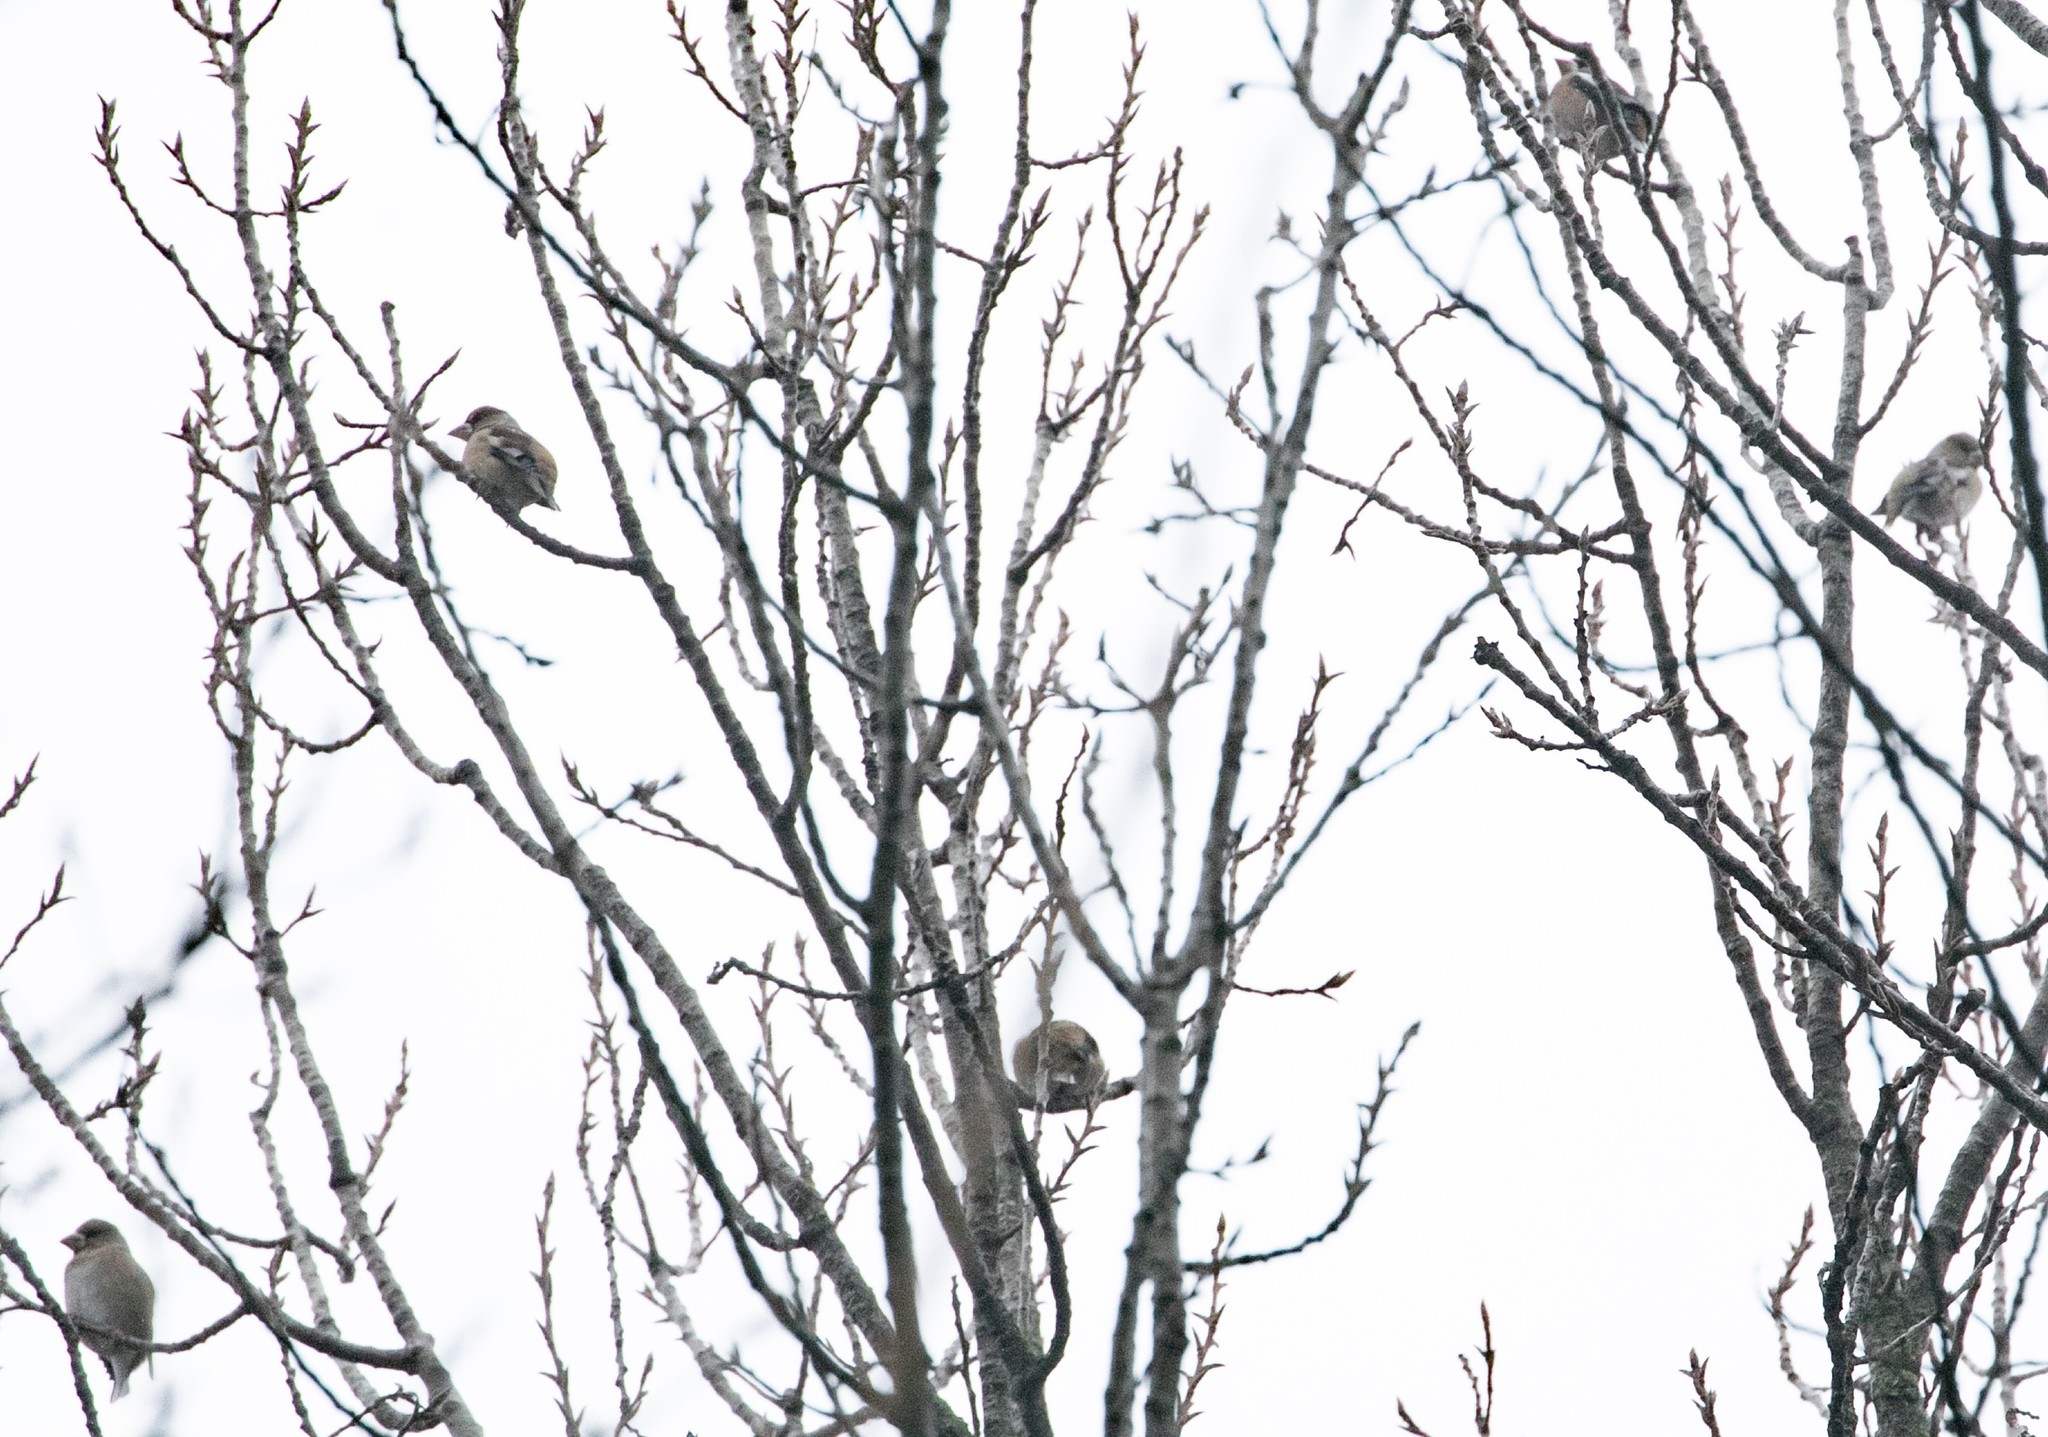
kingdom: Animalia
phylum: Chordata
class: Aves
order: Passeriformes
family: Fringillidae
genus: Coccothraustes
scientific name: Coccothraustes coccothraustes
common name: Hawfinch
